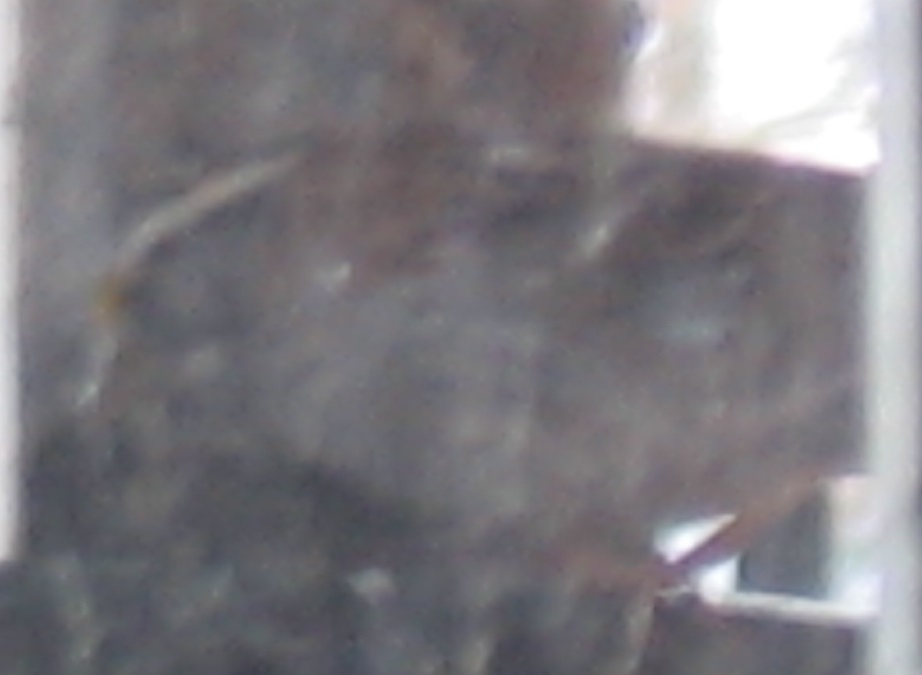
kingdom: Animalia
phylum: Chordata
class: Aves
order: Passeriformes
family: Passerellidae
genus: Zonotrichia
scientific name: Zonotrichia albicollis
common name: White-throated sparrow
